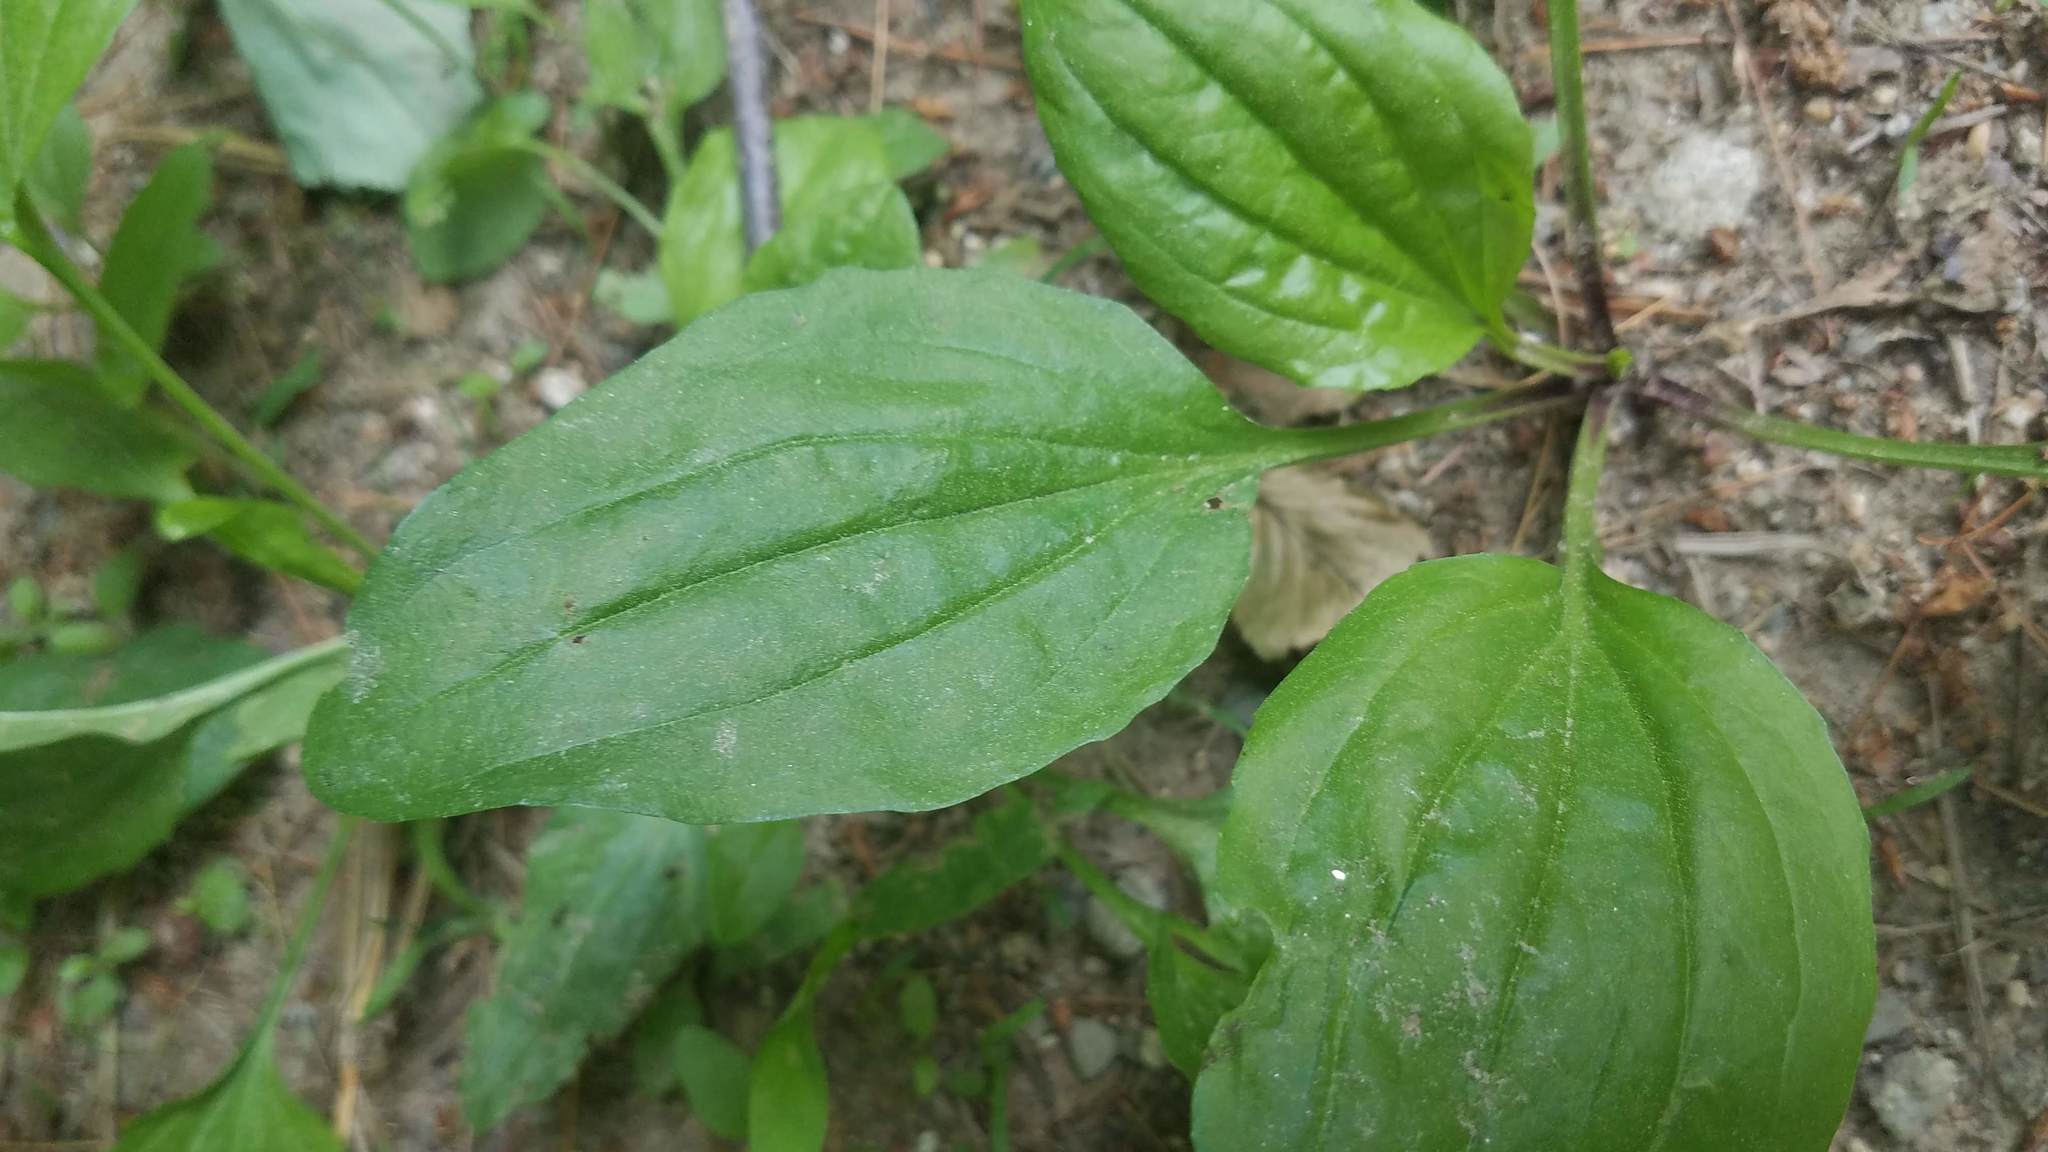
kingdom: Plantae
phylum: Tracheophyta
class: Magnoliopsida
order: Lamiales
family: Plantaginaceae
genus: Plantago
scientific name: Plantago rugelii
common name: American plantain
